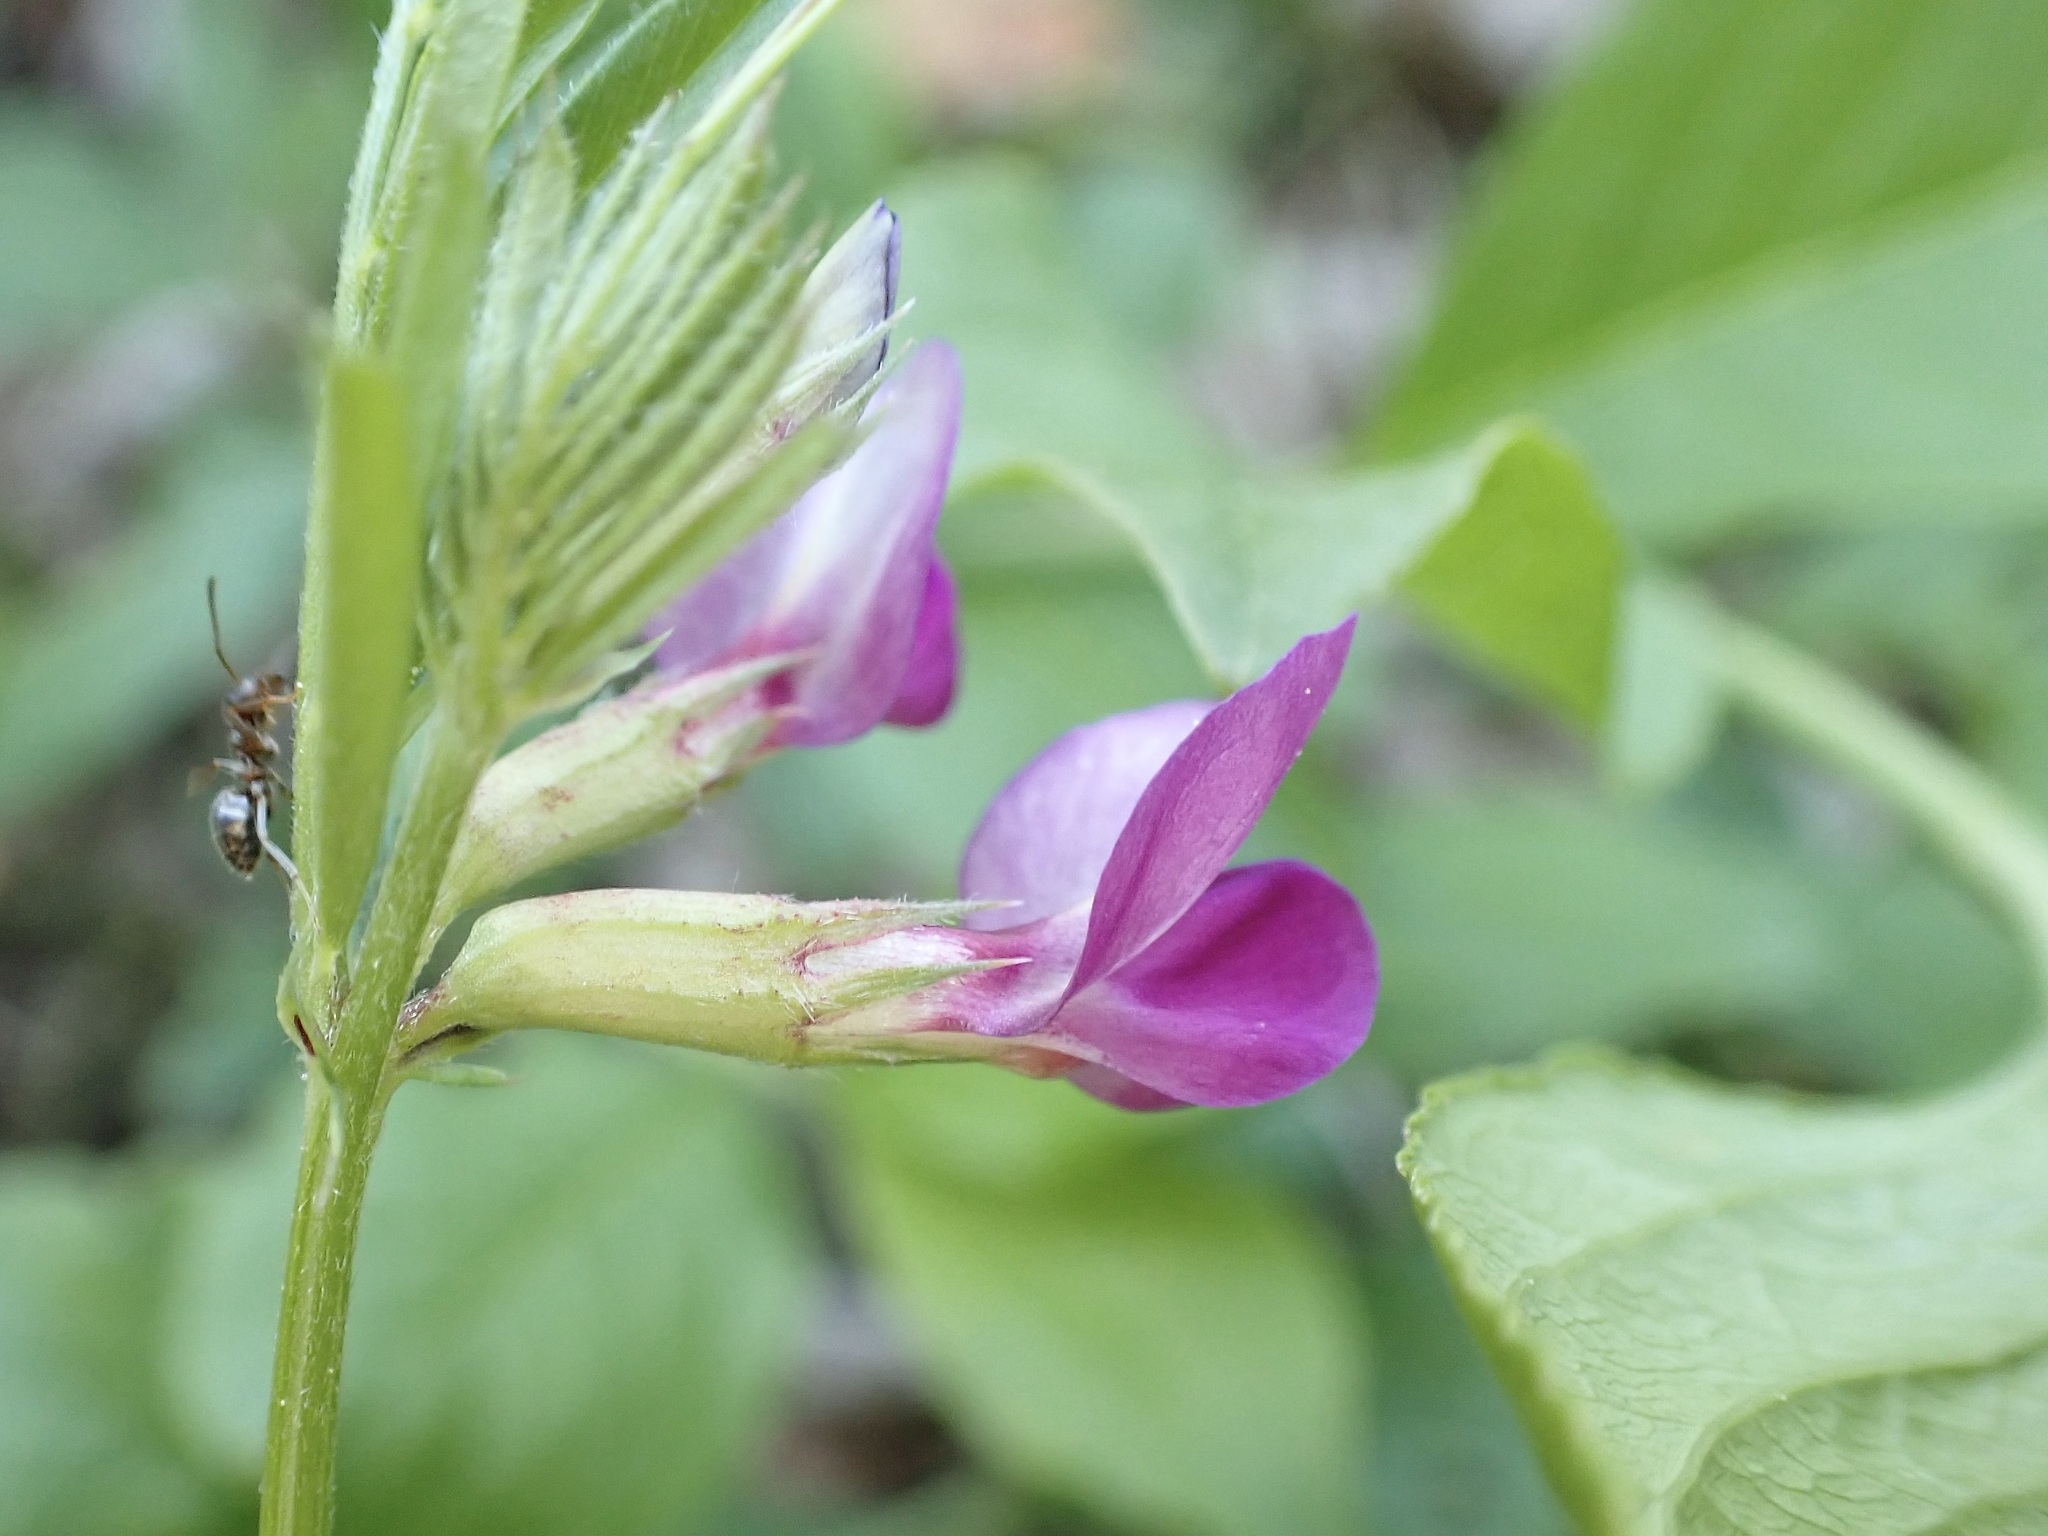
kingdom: Plantae
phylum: Tracheophyta
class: Magnoliopsida
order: Fabales
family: Fabaceae
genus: Vicia
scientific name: Vicia sativa
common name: Garden vetch
